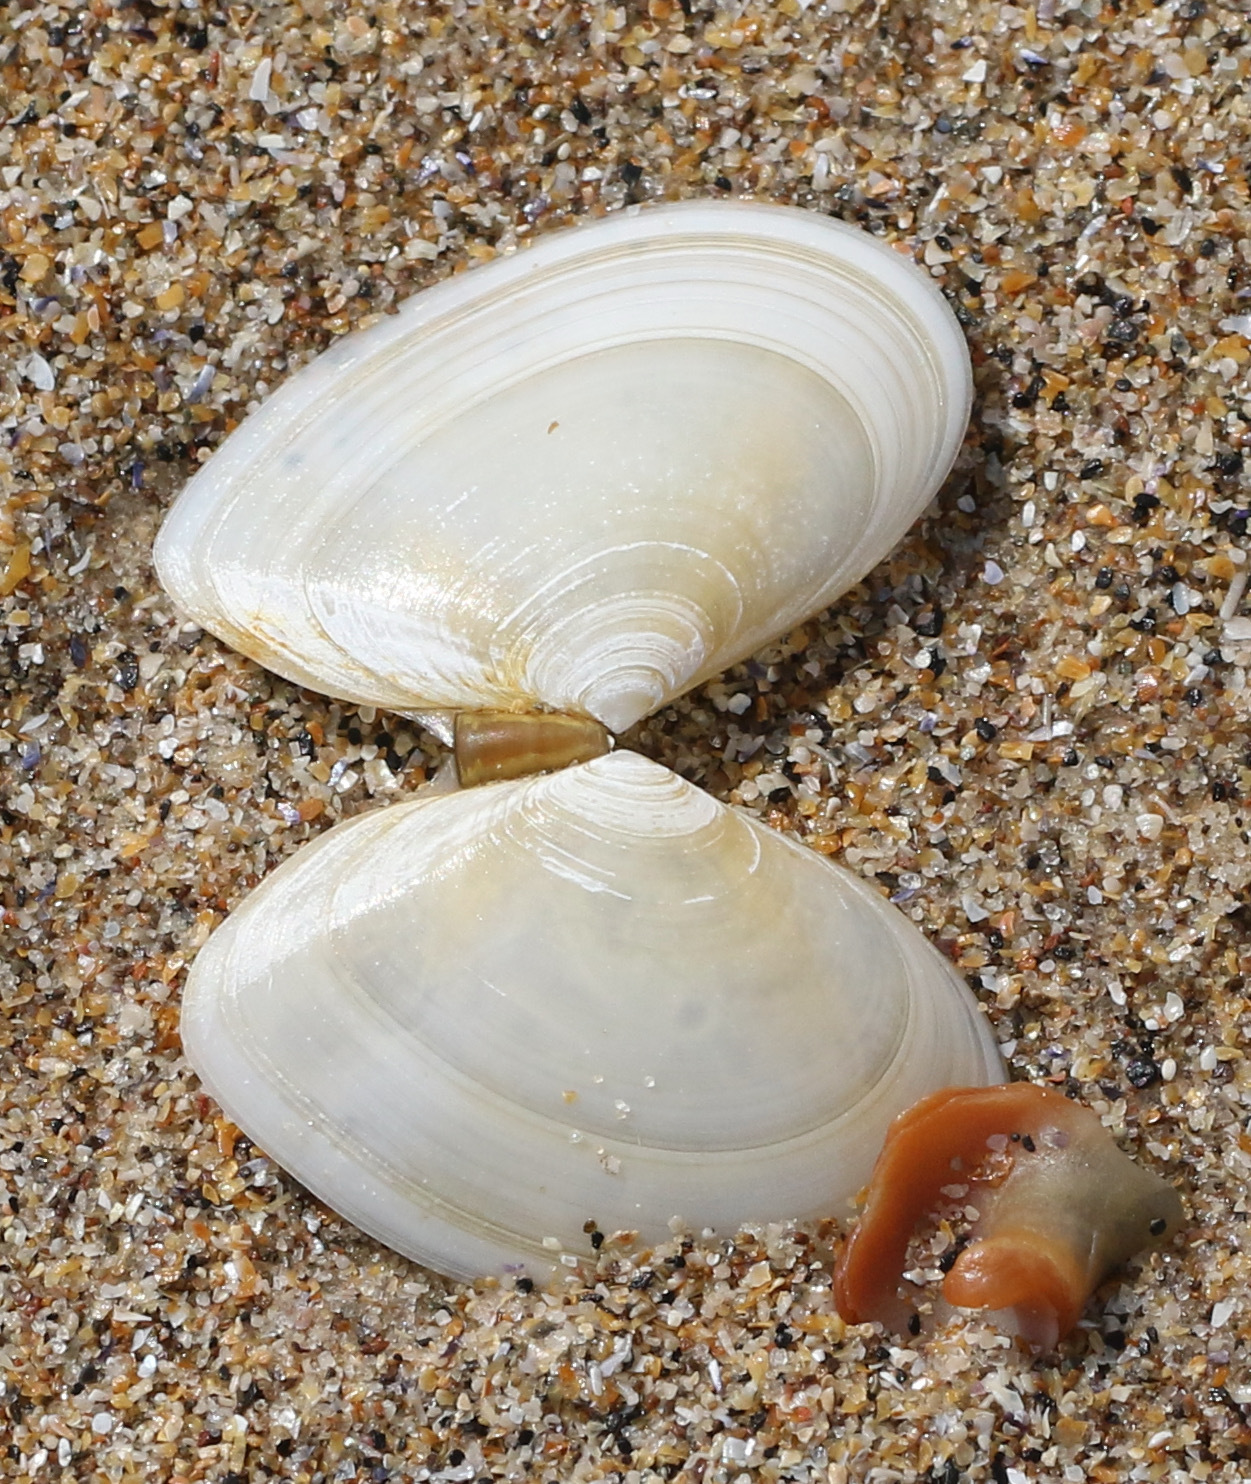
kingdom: Animalia
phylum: Mollusca
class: Bivalvia
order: Cardiida
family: Tellinidae
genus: Macomangulus
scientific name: Macomangulus tenuis
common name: Thin tellin
